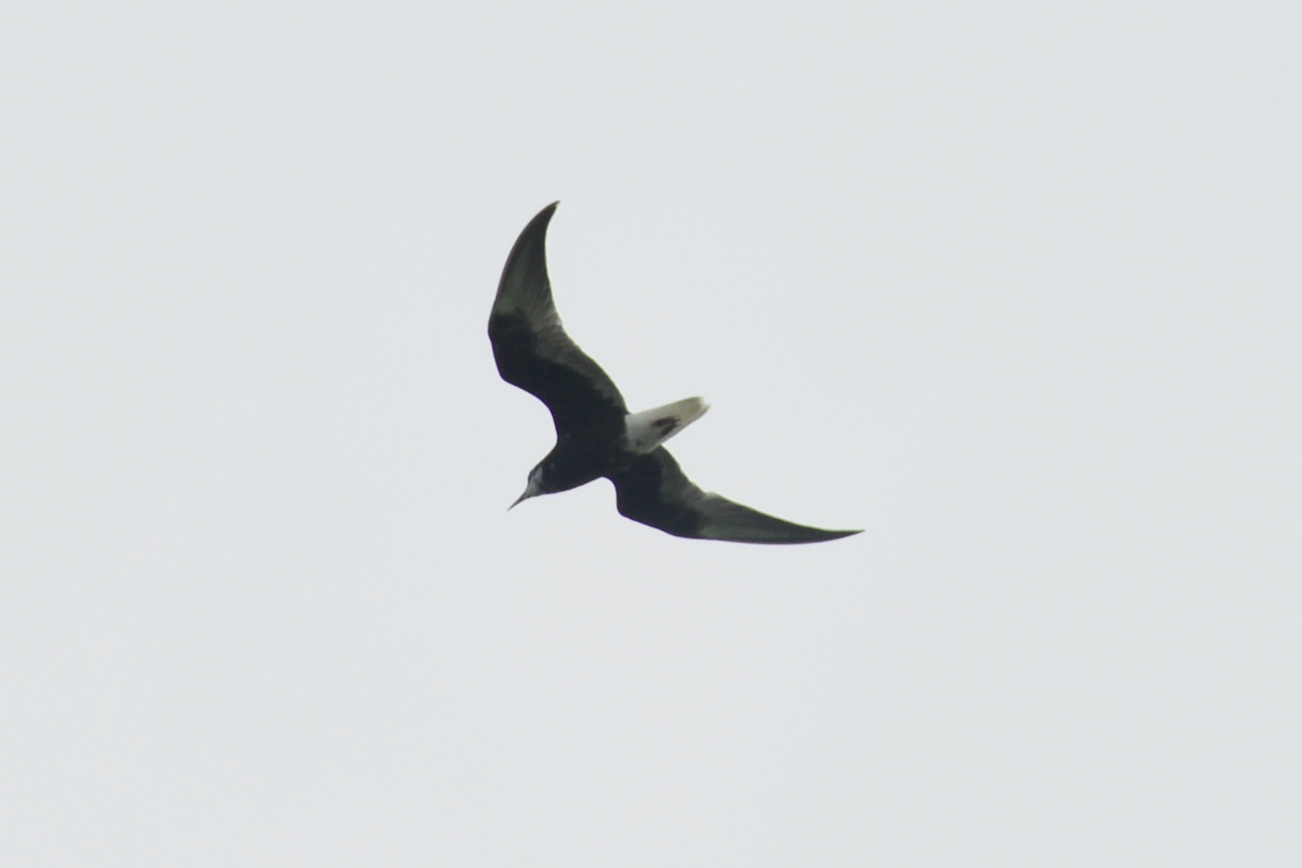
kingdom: Animalia
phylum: Chordata
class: Aves
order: Charadriiformes
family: Laridae
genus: Chlidonias
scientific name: Chlidonias leucopterus
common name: White-winged tern
